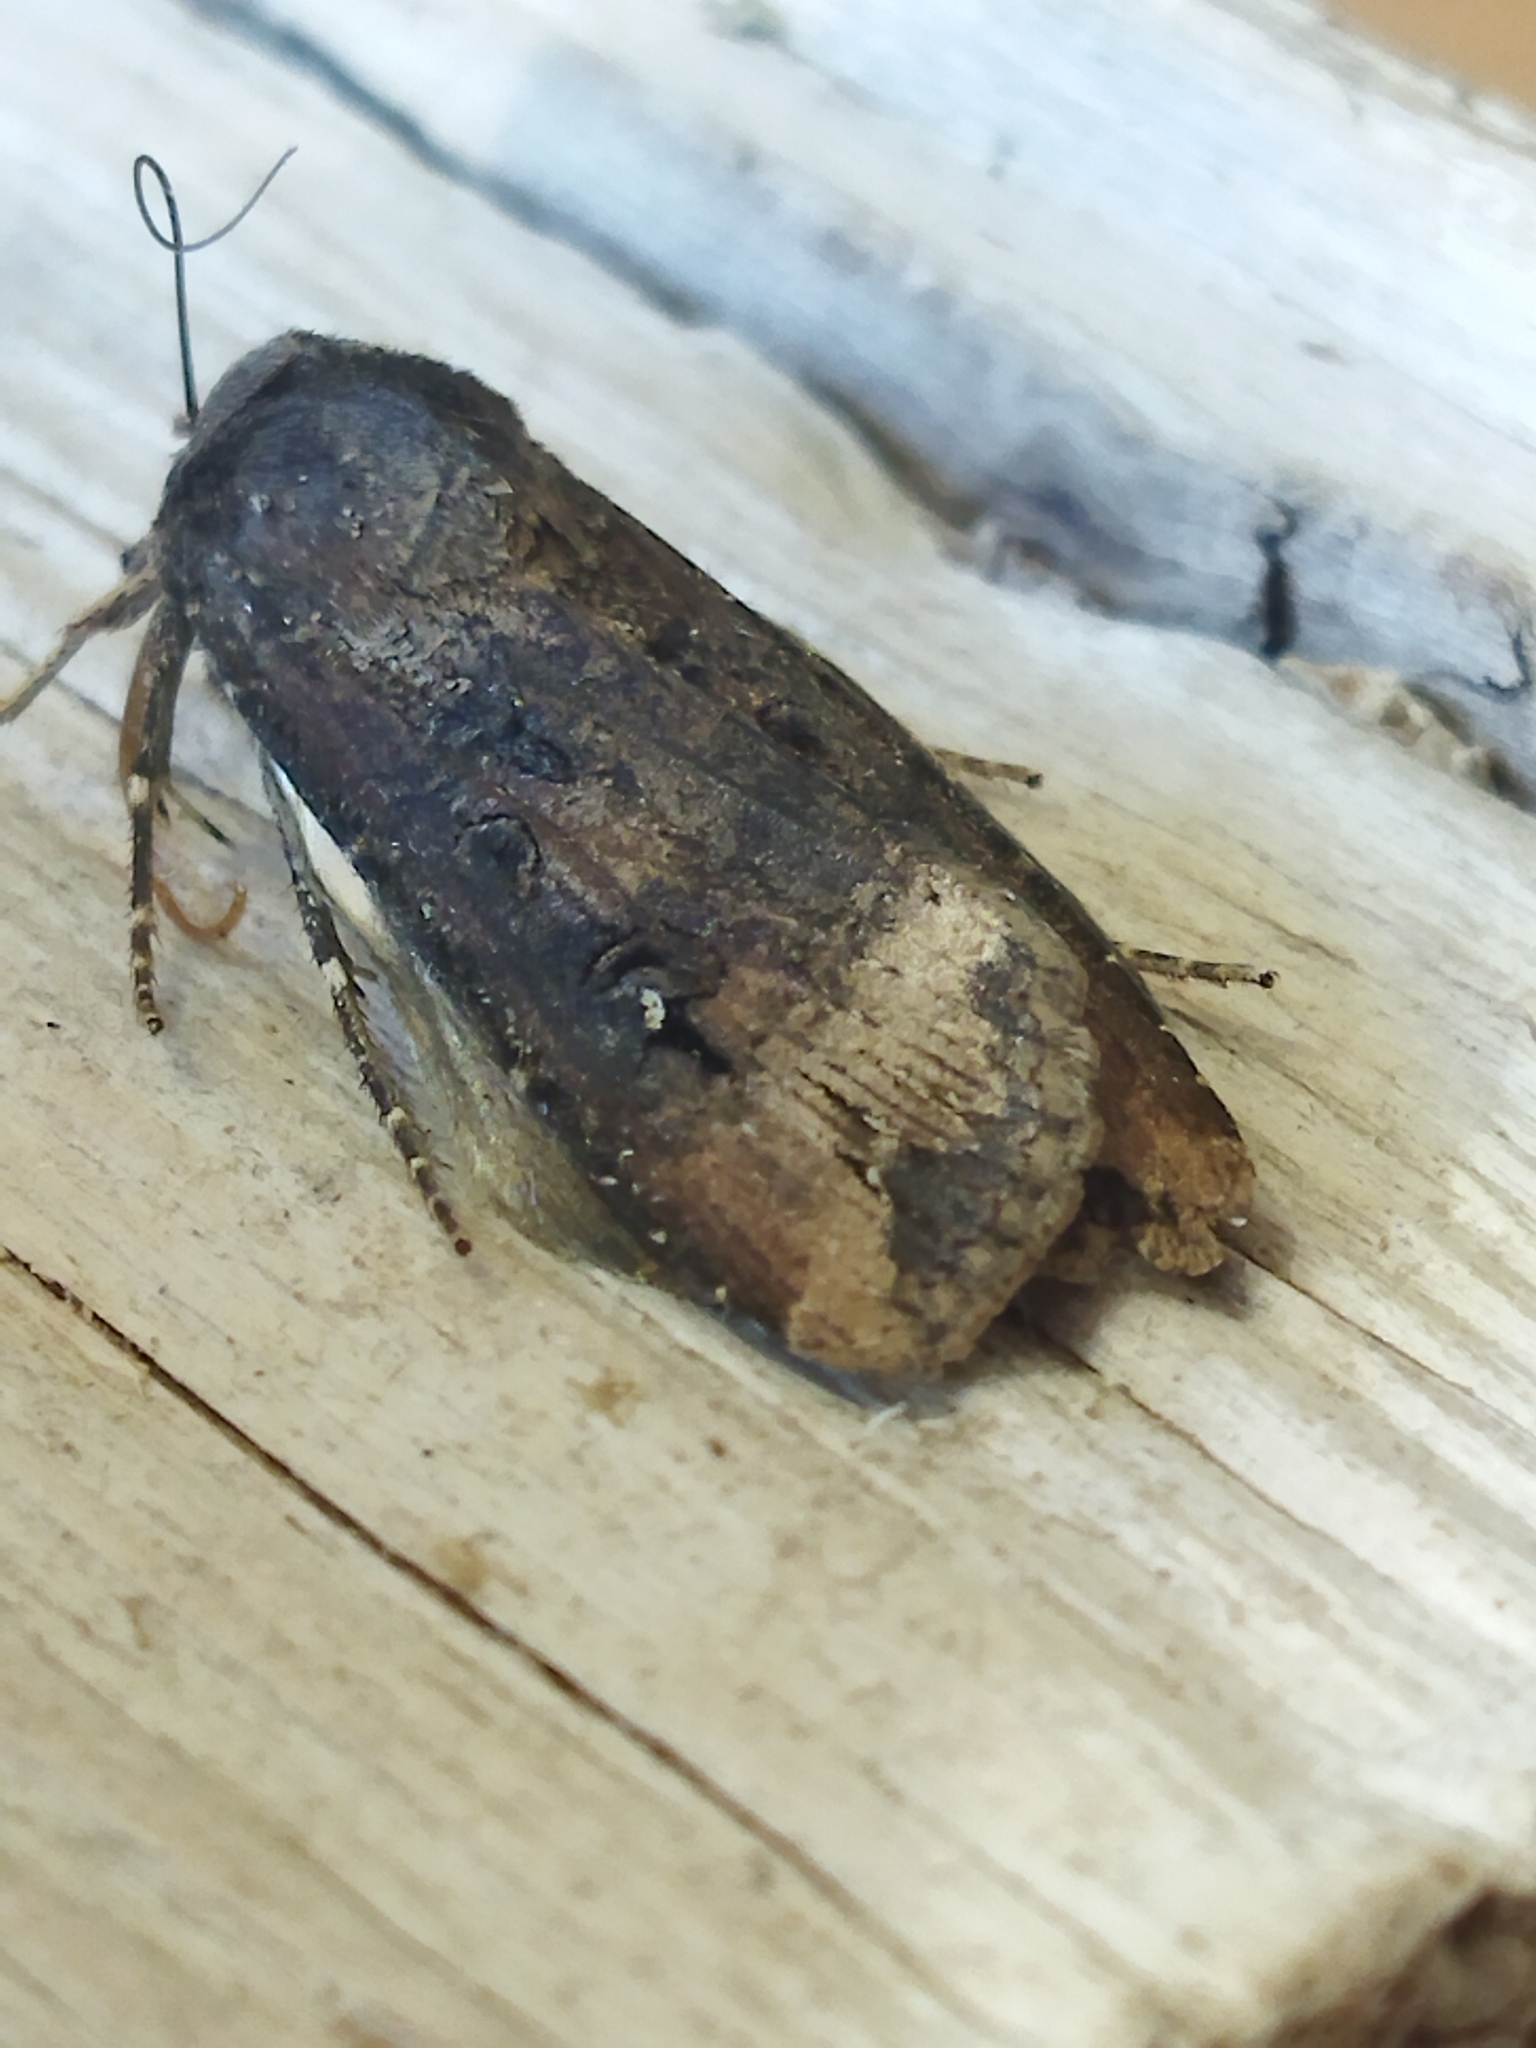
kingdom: Animalia
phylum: Arthropoda
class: Insecta
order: Lepidoptera
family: Noctuidae
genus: Agrotis
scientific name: Agrotis ipsilon
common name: Dark sword-grass
